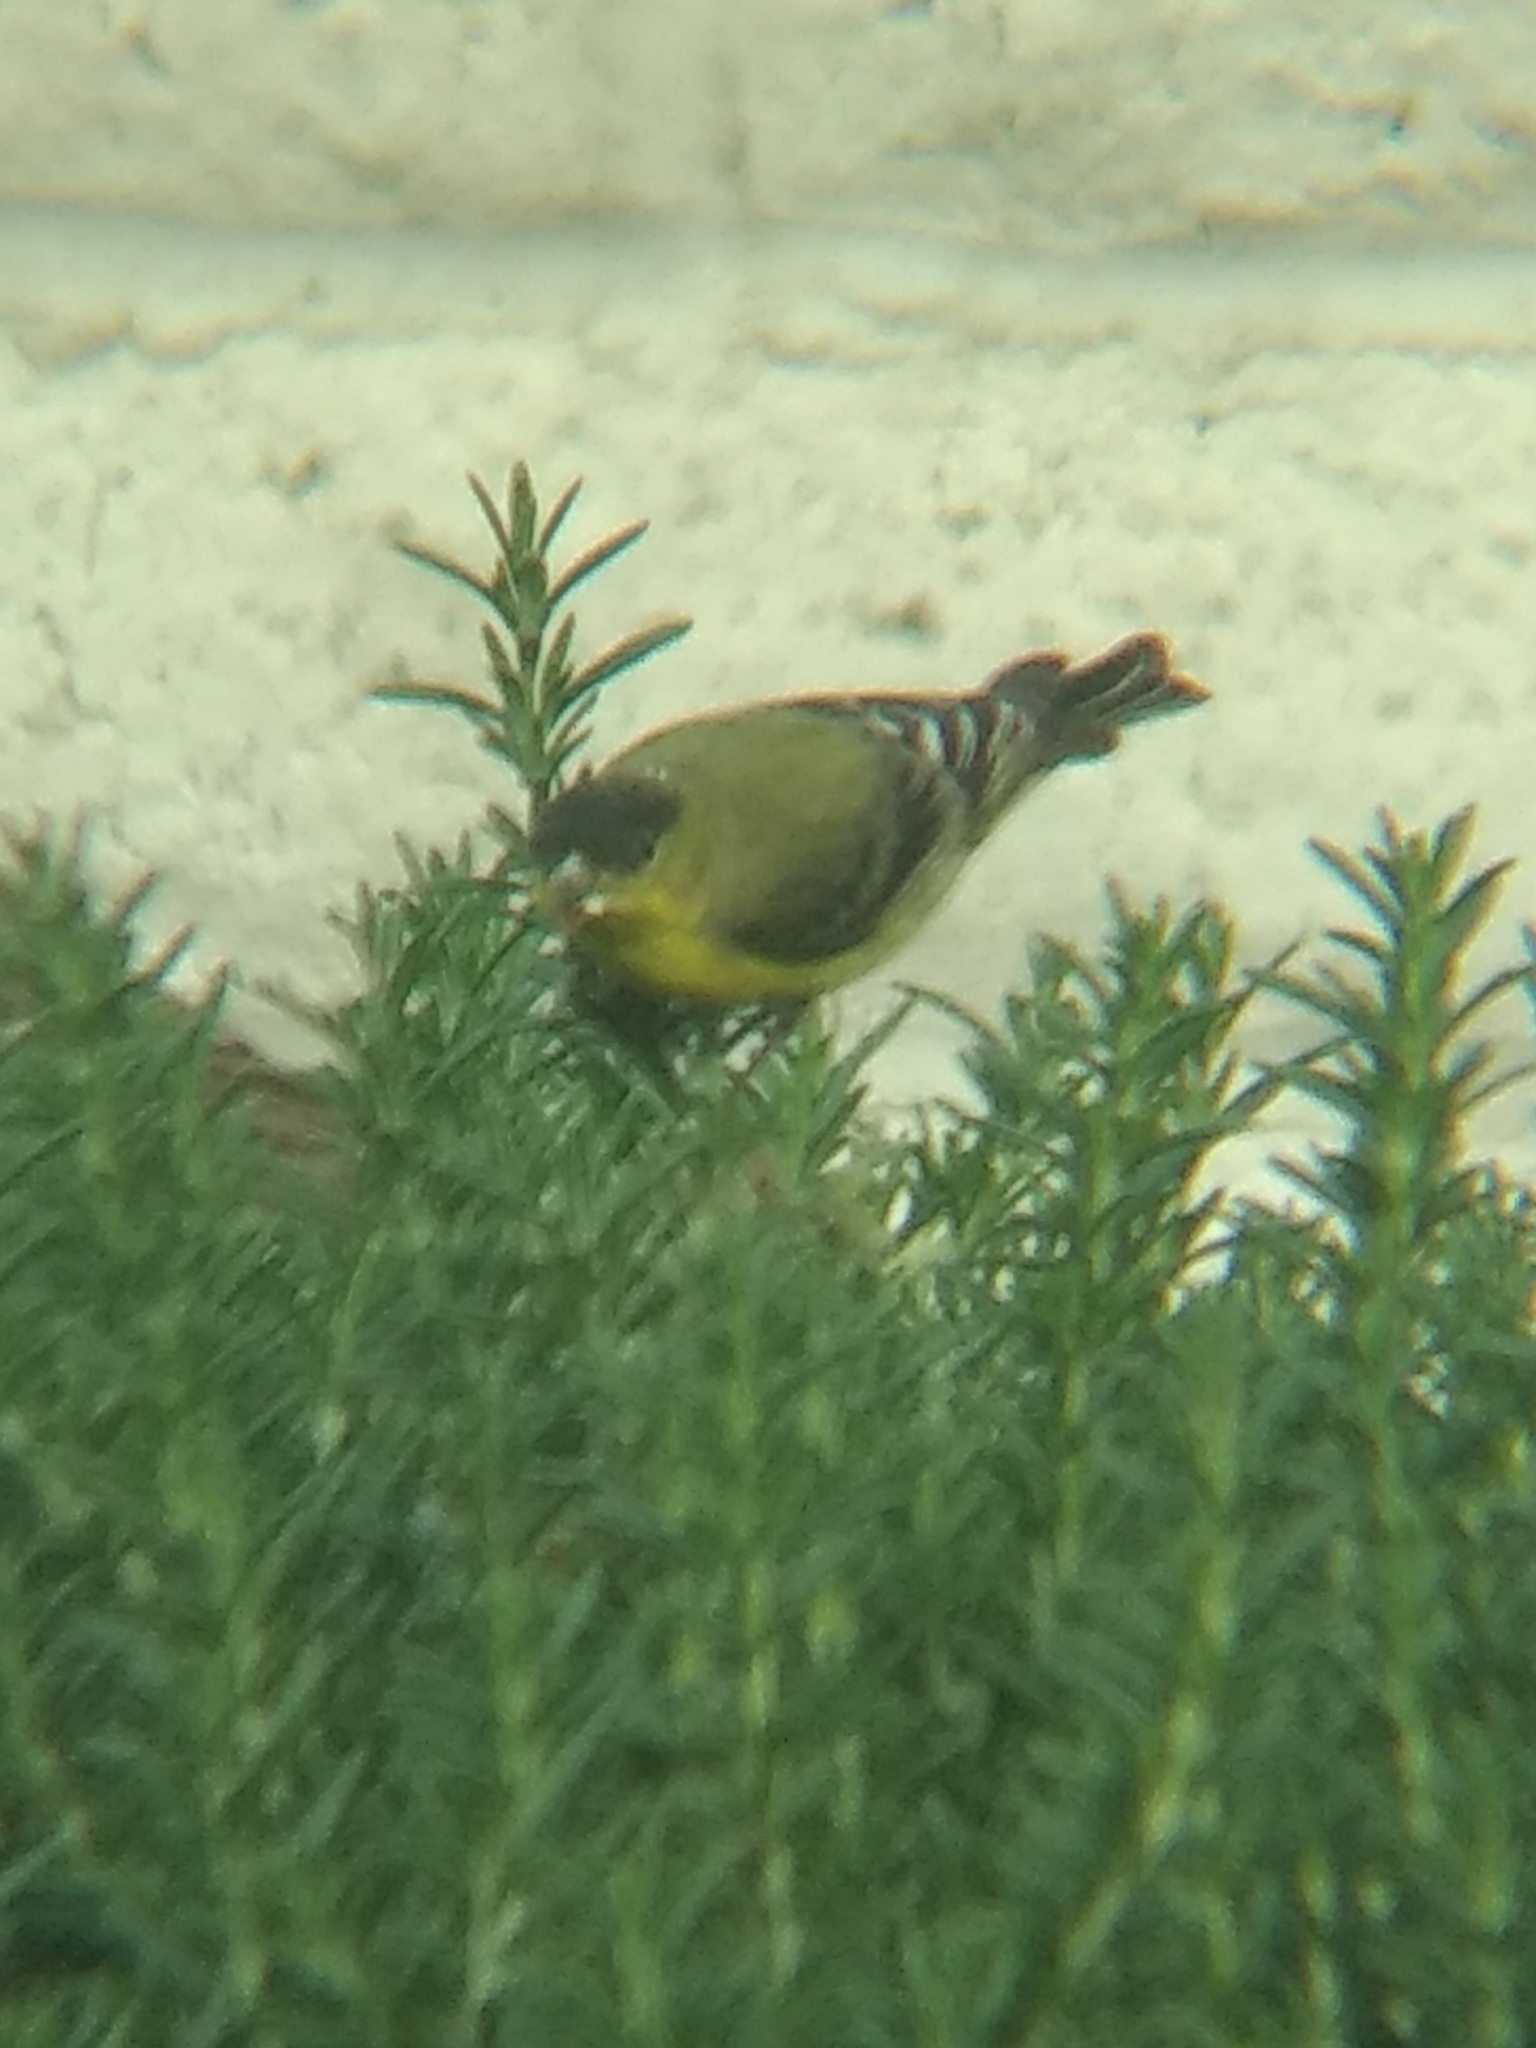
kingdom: Animalia
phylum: Chordata
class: Aves
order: Passeriformes
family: Fringillidae
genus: Spinus
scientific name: Spinus psaltria
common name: Lesser goldfinch
